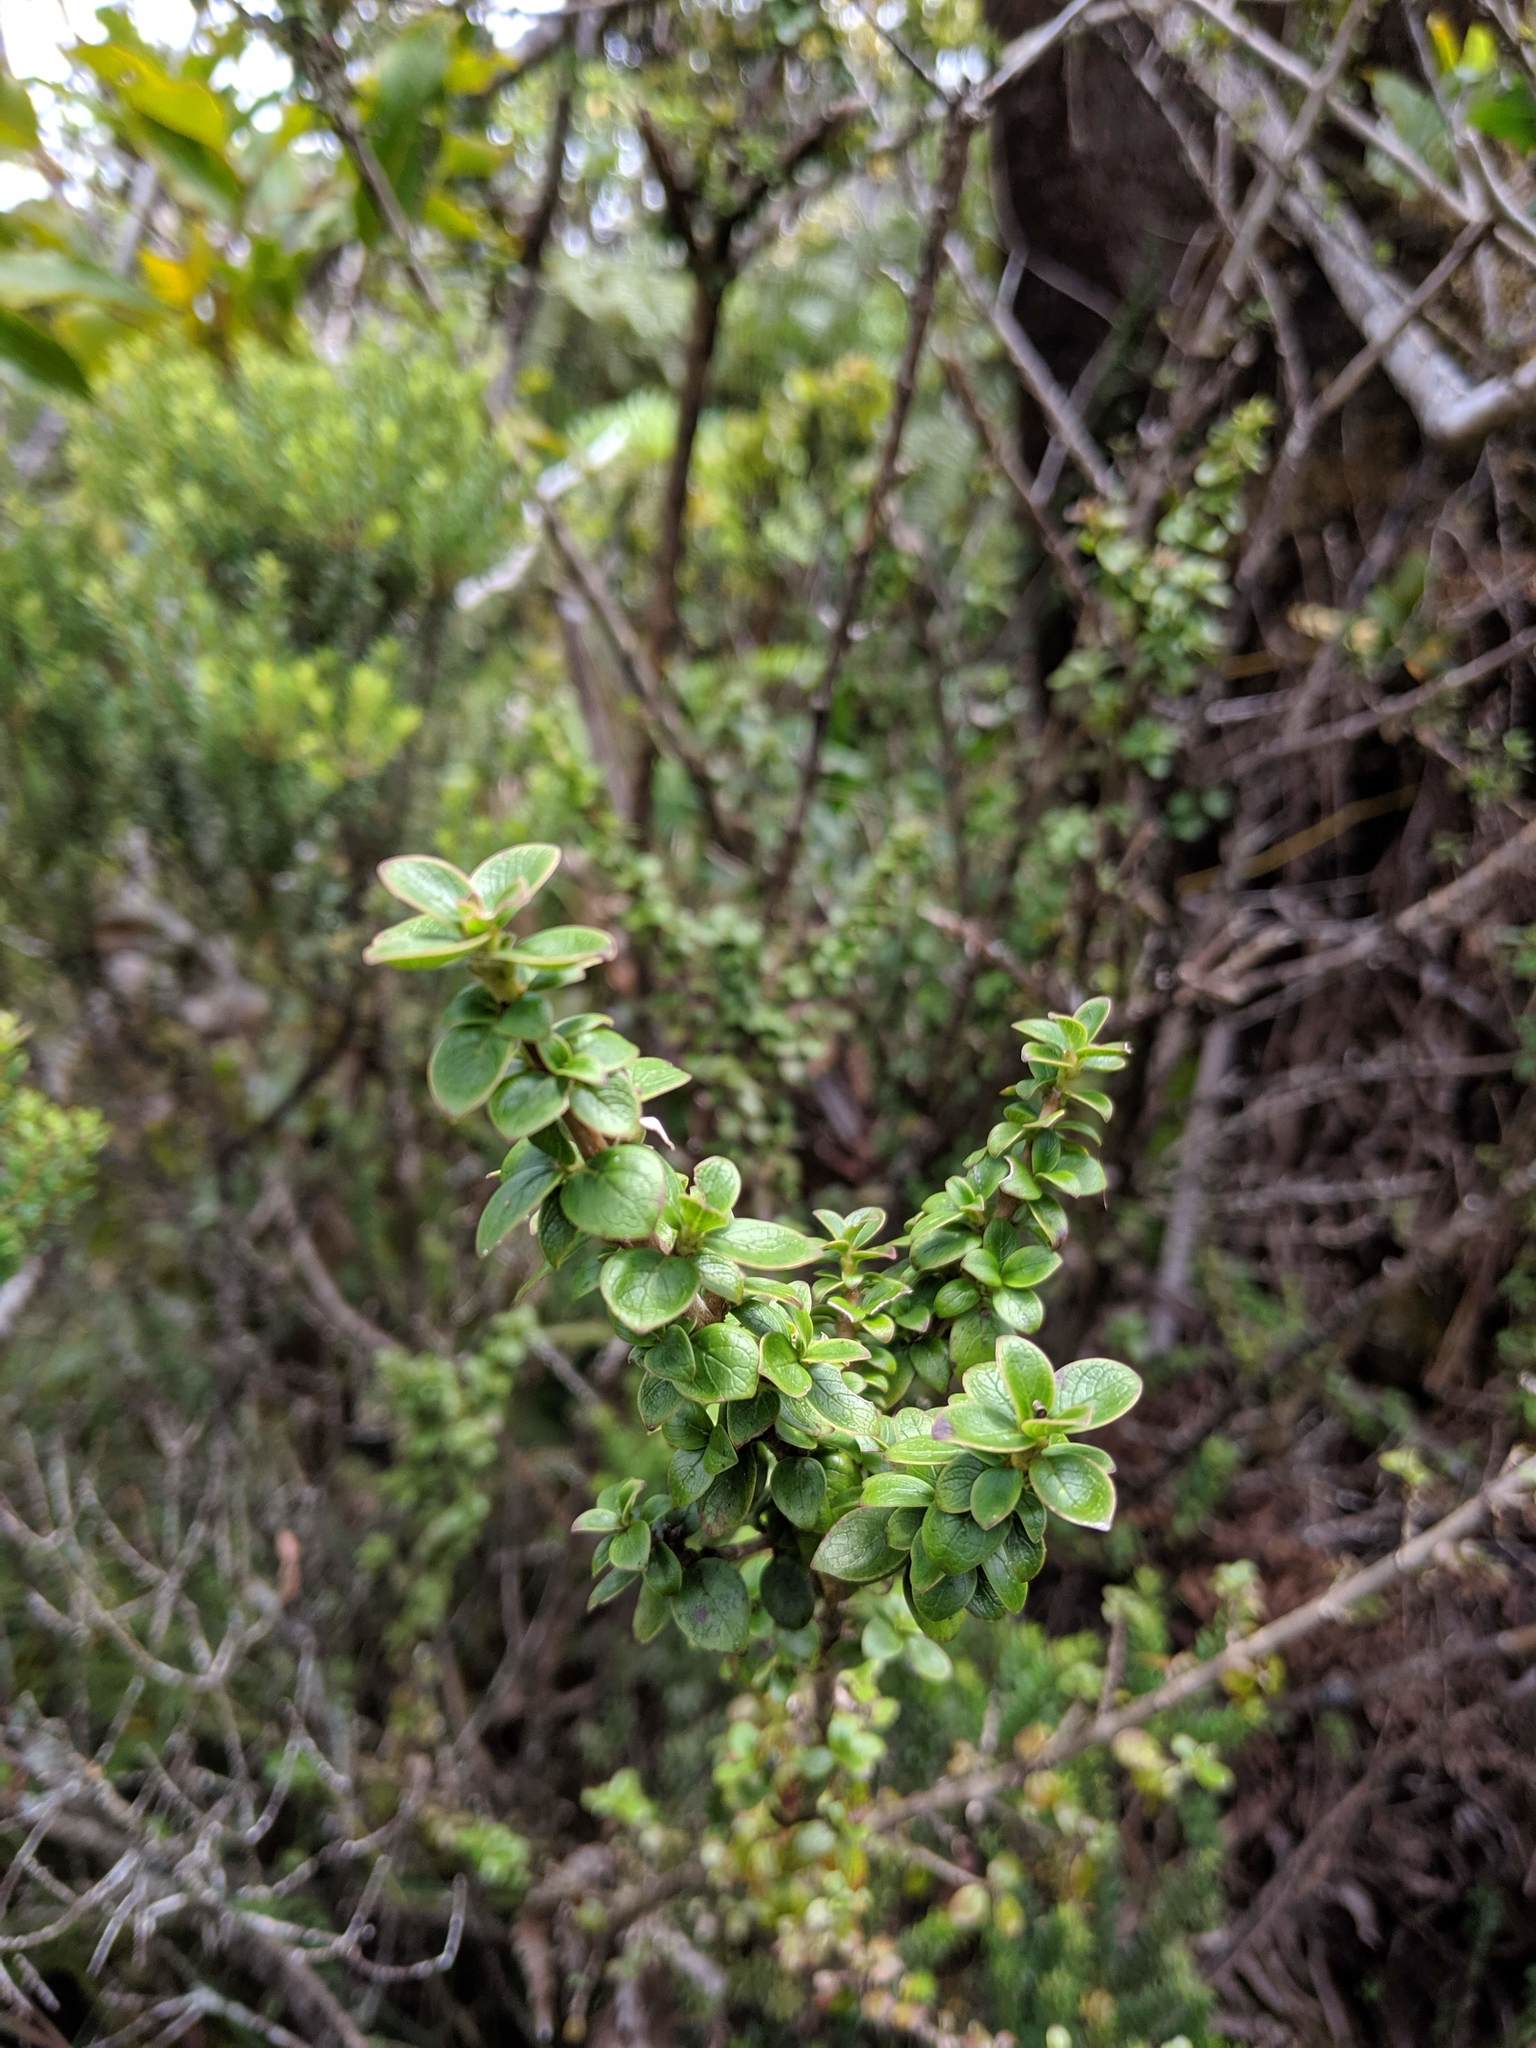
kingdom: Plantae
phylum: Tracheophyta
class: Magnoliopsida
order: Gentianales
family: Rubiaceae
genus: Coprosma
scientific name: Coprosma elliptica
